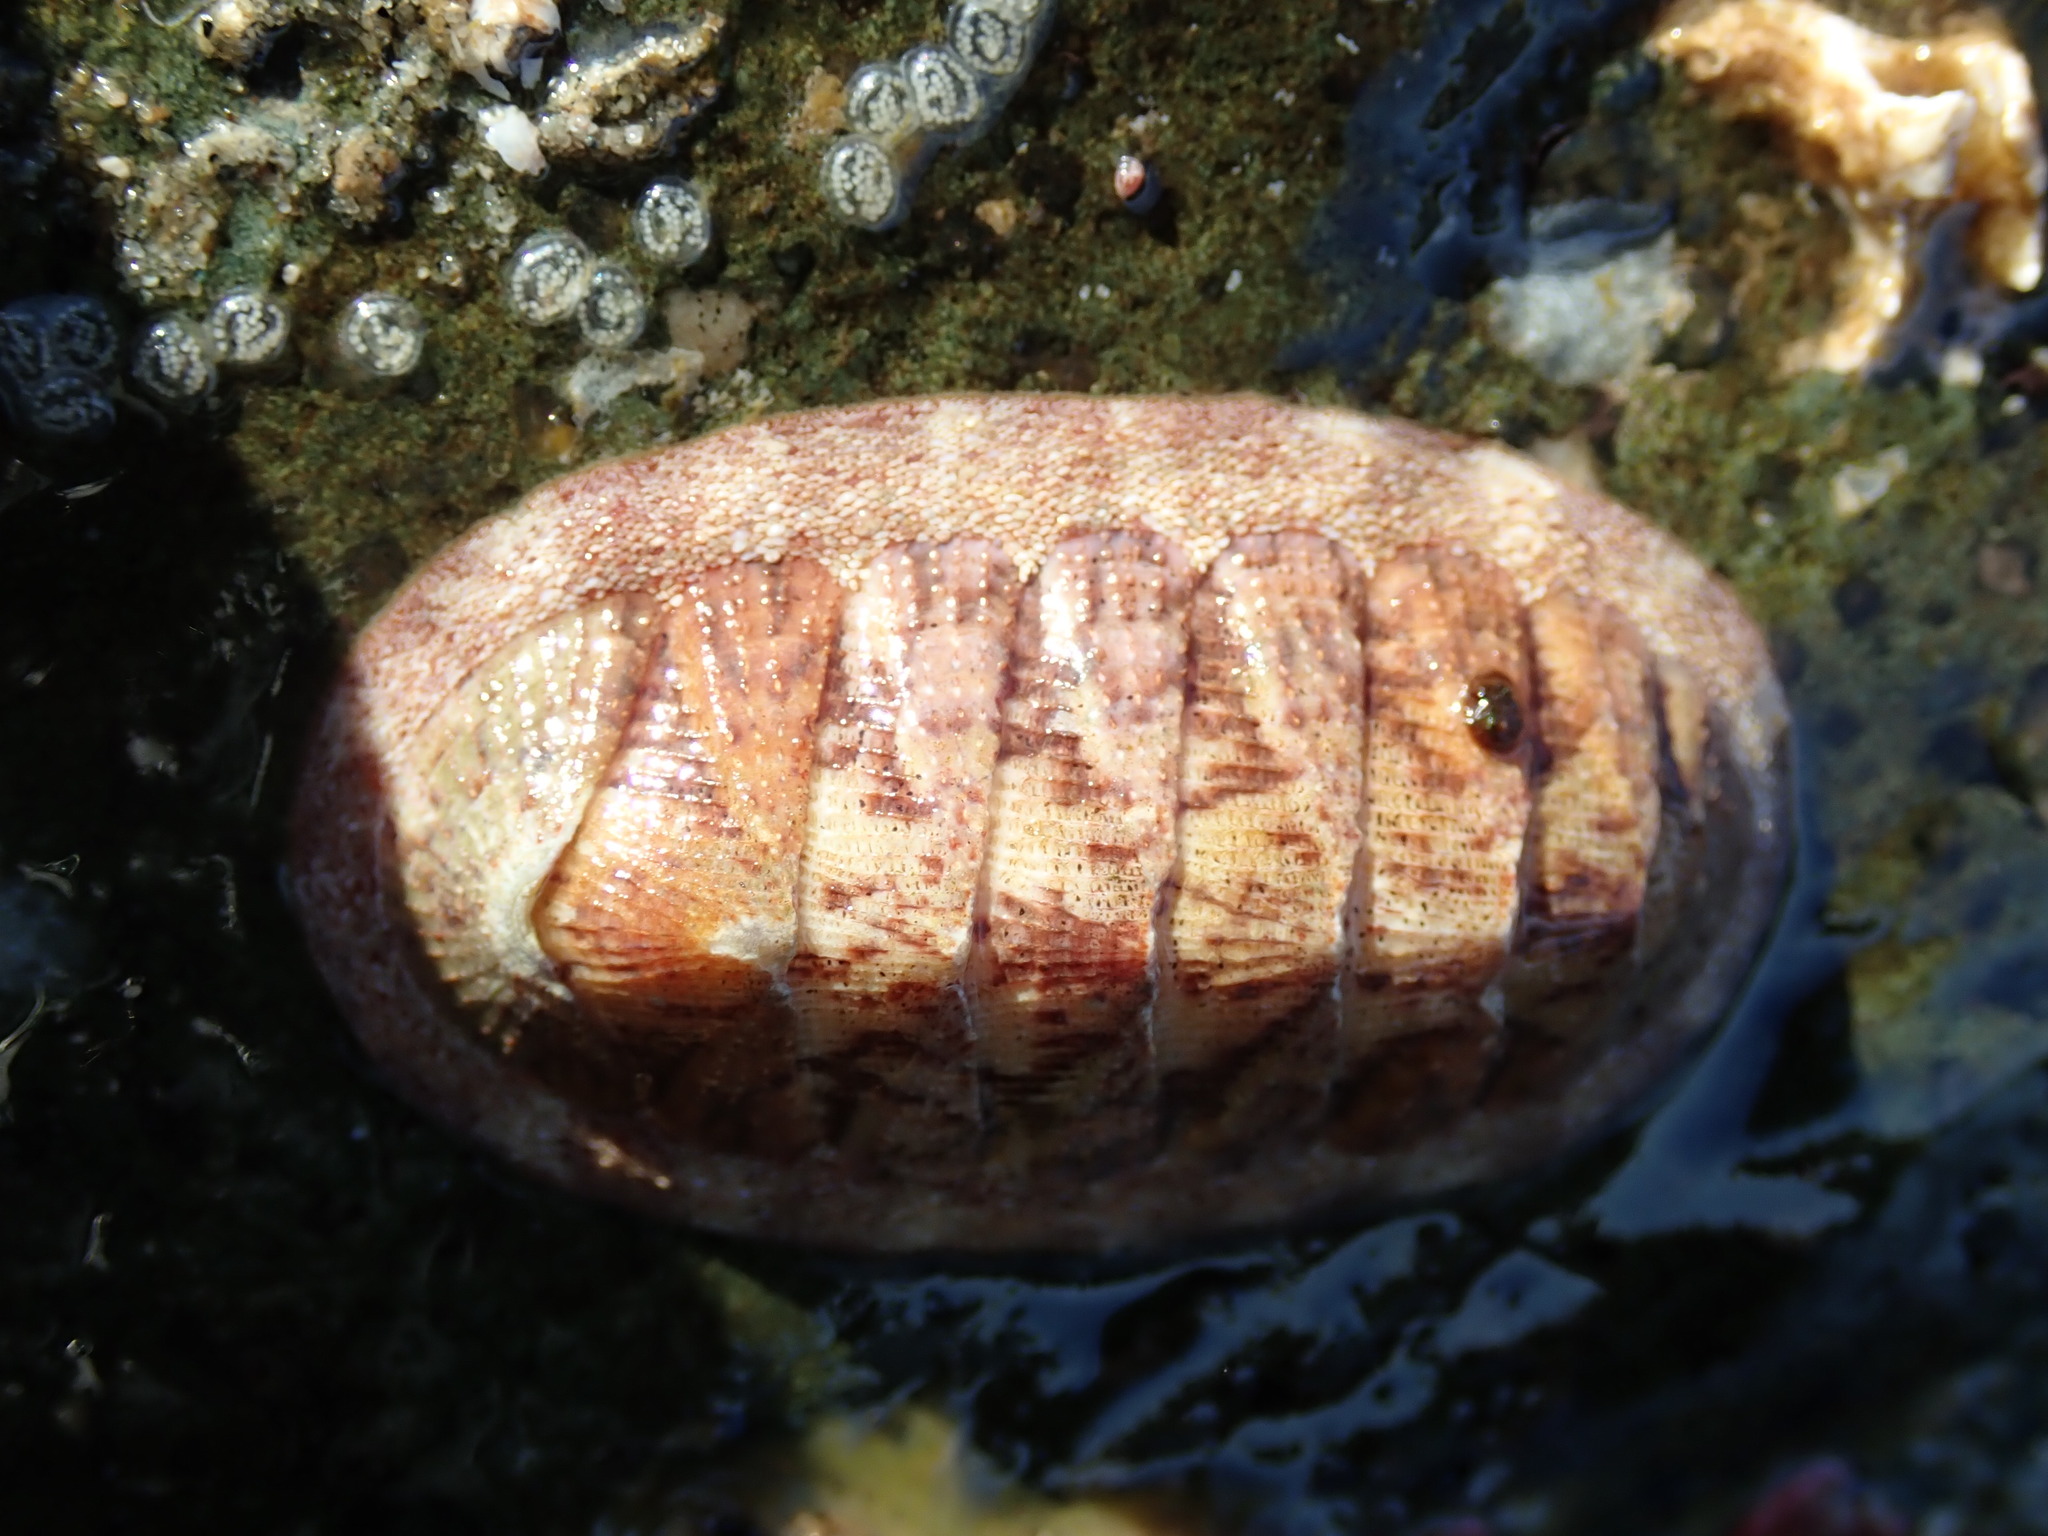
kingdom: Animalia
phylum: Mollusca
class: Polyplacophora
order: Chitonida
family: Ischnochitonidae
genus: Lepidozona
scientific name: Lepidozona mertensii
